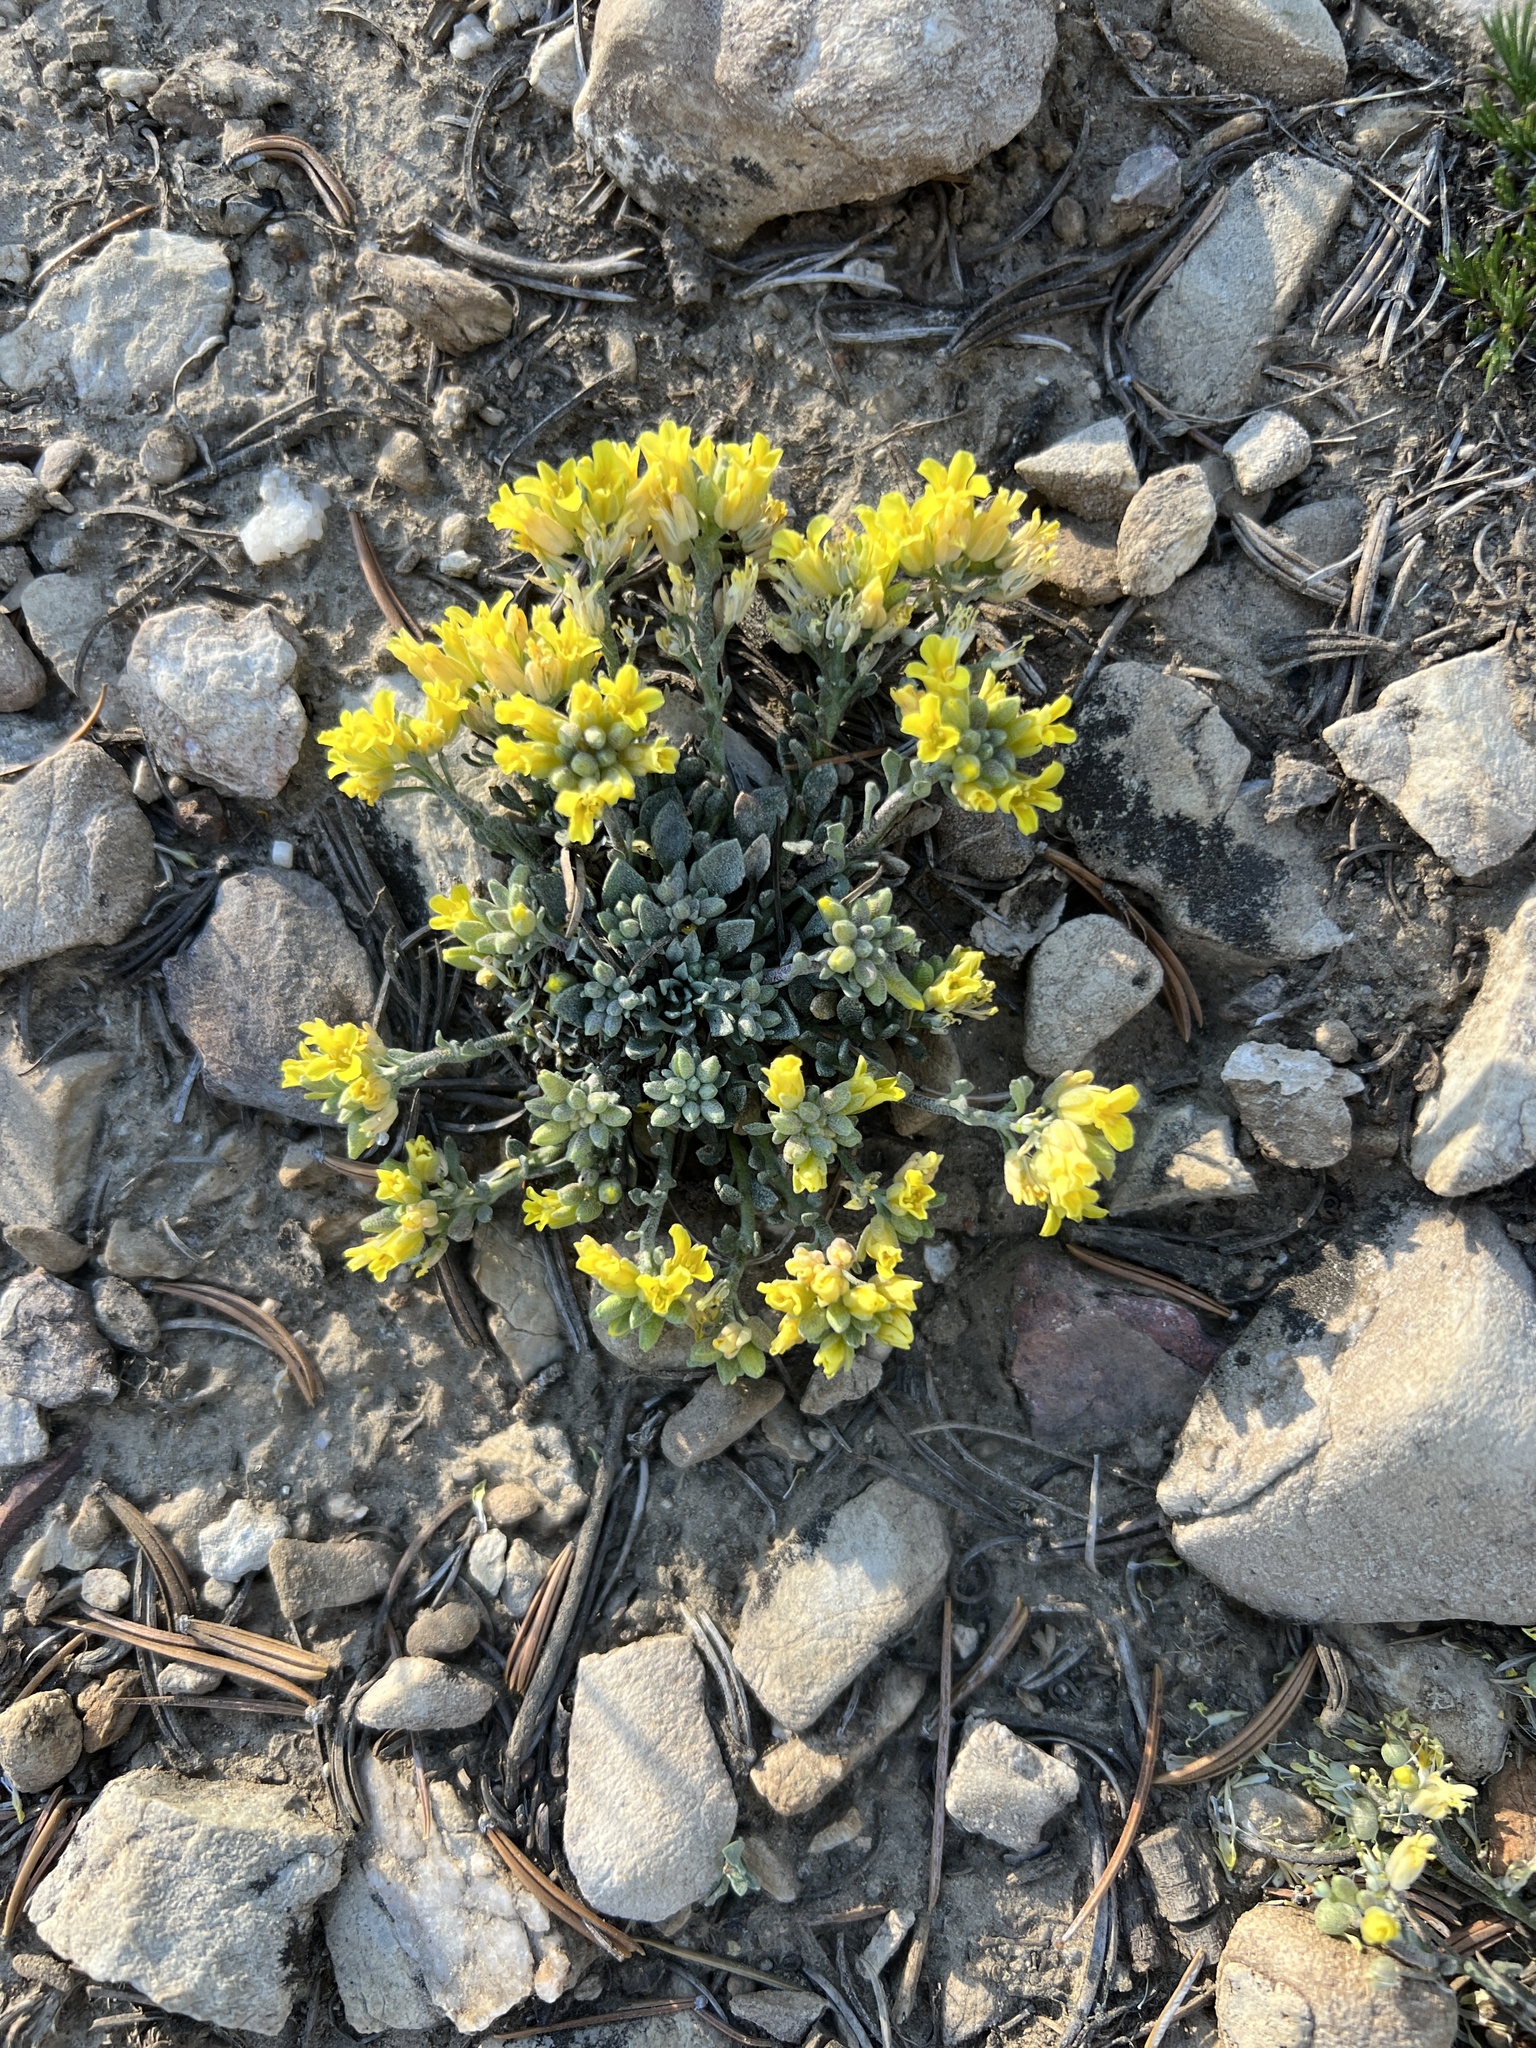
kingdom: Plantae
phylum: Tracheophyta
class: Magnoliopsida
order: Brassicales
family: Brassicaceae
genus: Physaria
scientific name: Physaria kingii
